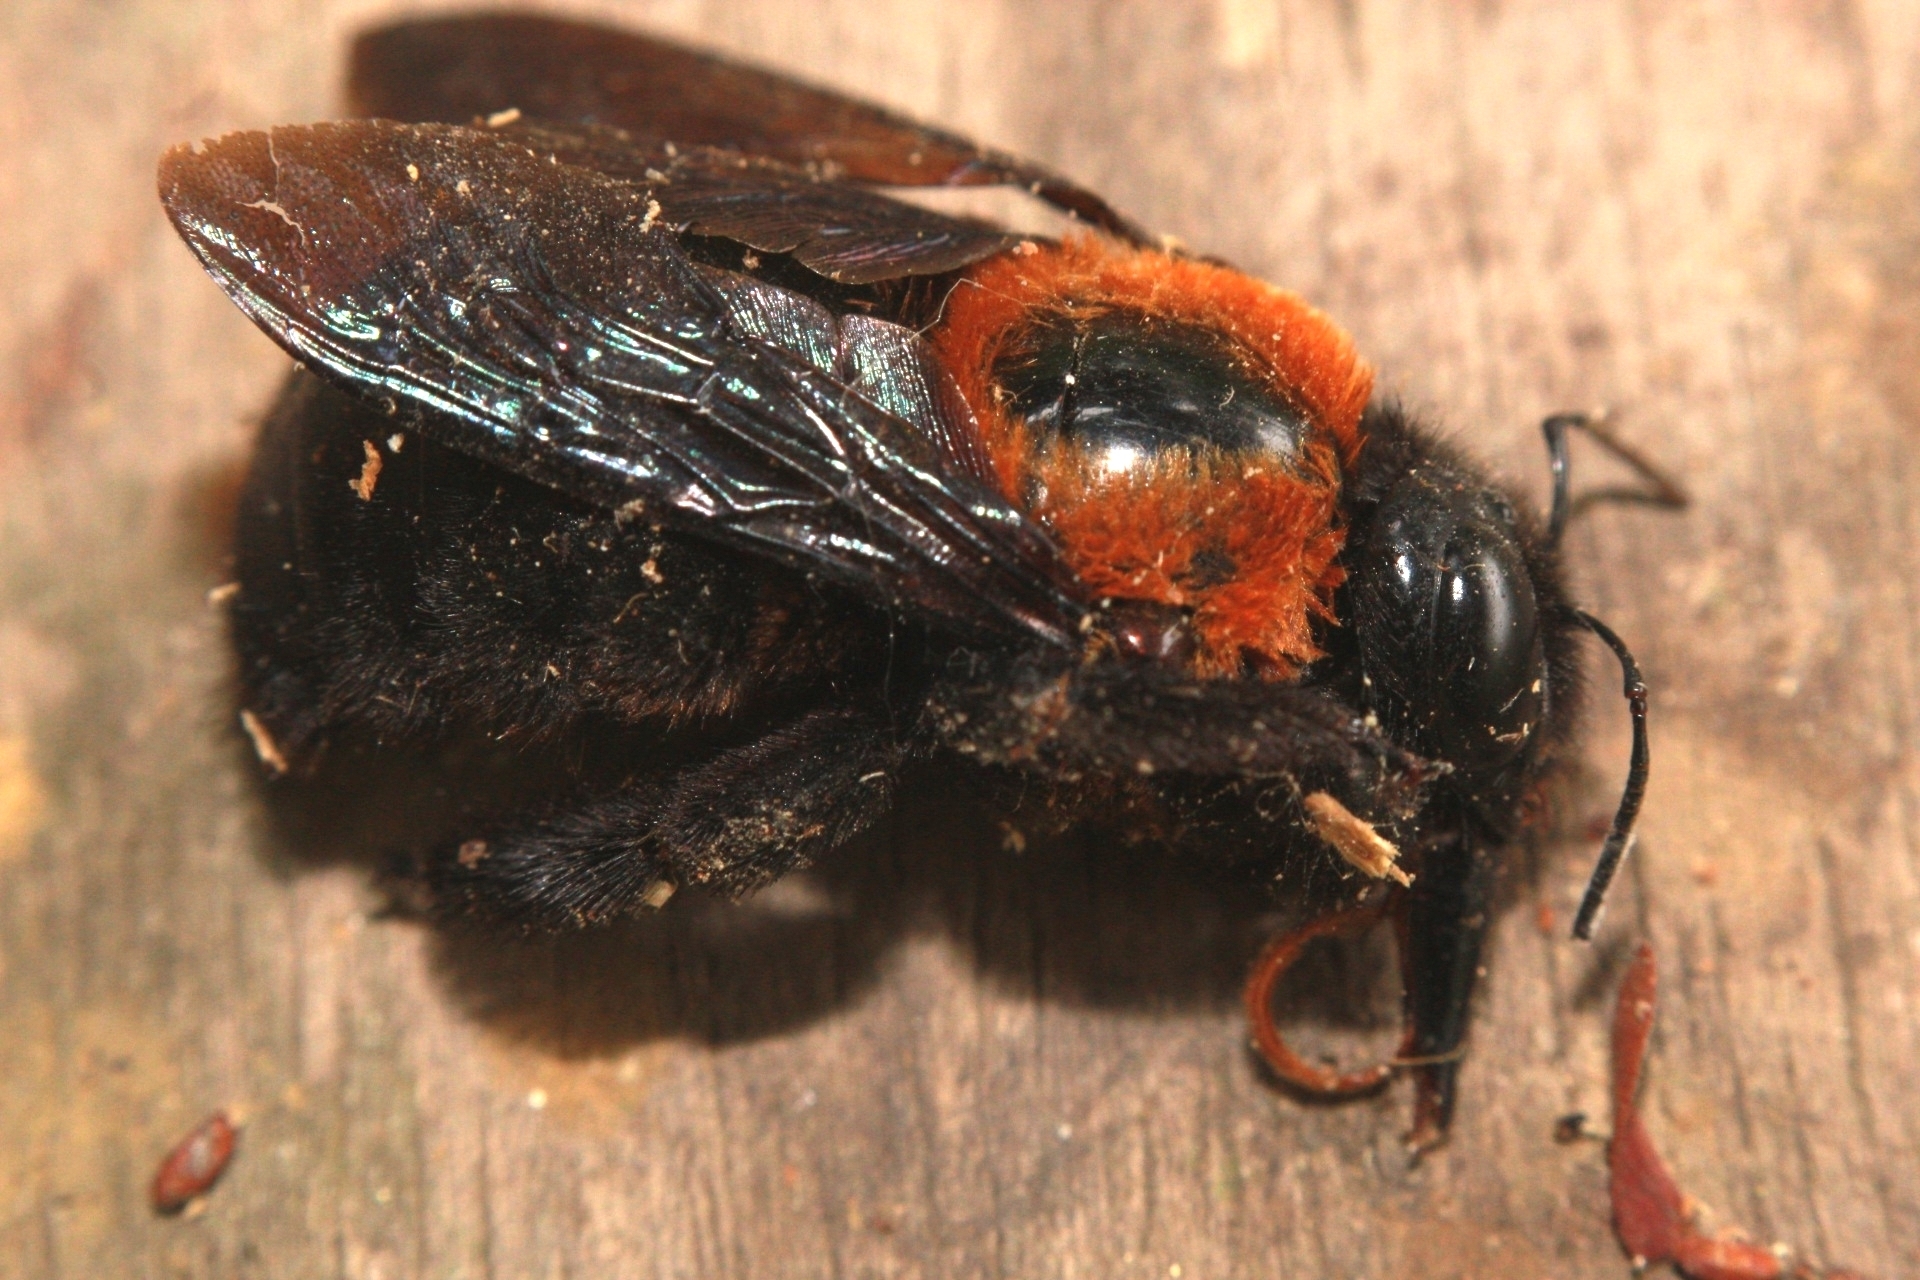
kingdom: Animalia
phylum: Arthropoda
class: Insecta
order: Hymenoptera
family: Apidae
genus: Xylocopa
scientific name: Xylocopa similis
